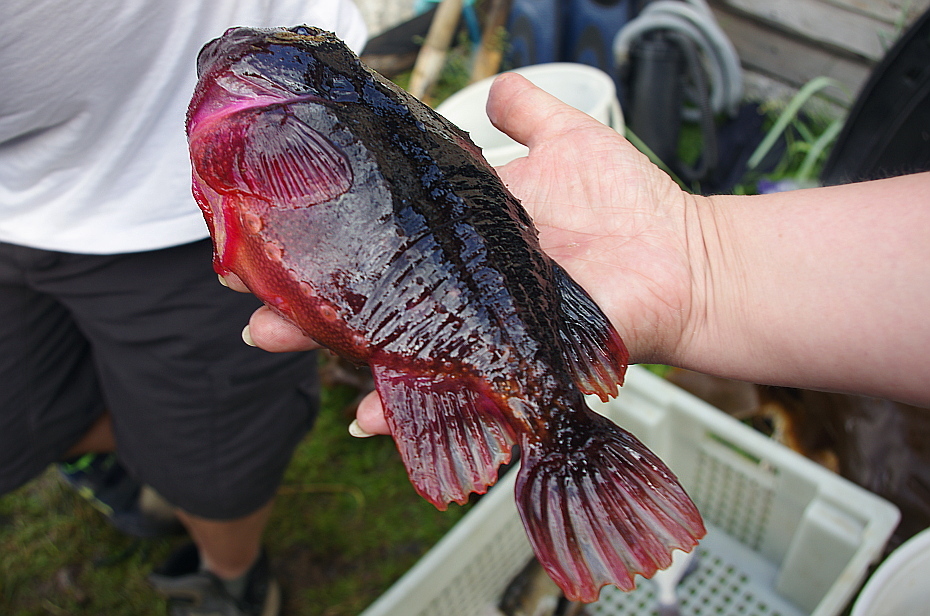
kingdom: Animalia
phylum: Chordata
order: Scorpaeniformes
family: Cyclopteridae
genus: Cyclopterus
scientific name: Cyclopterus lumpus
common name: Lumpsucker
